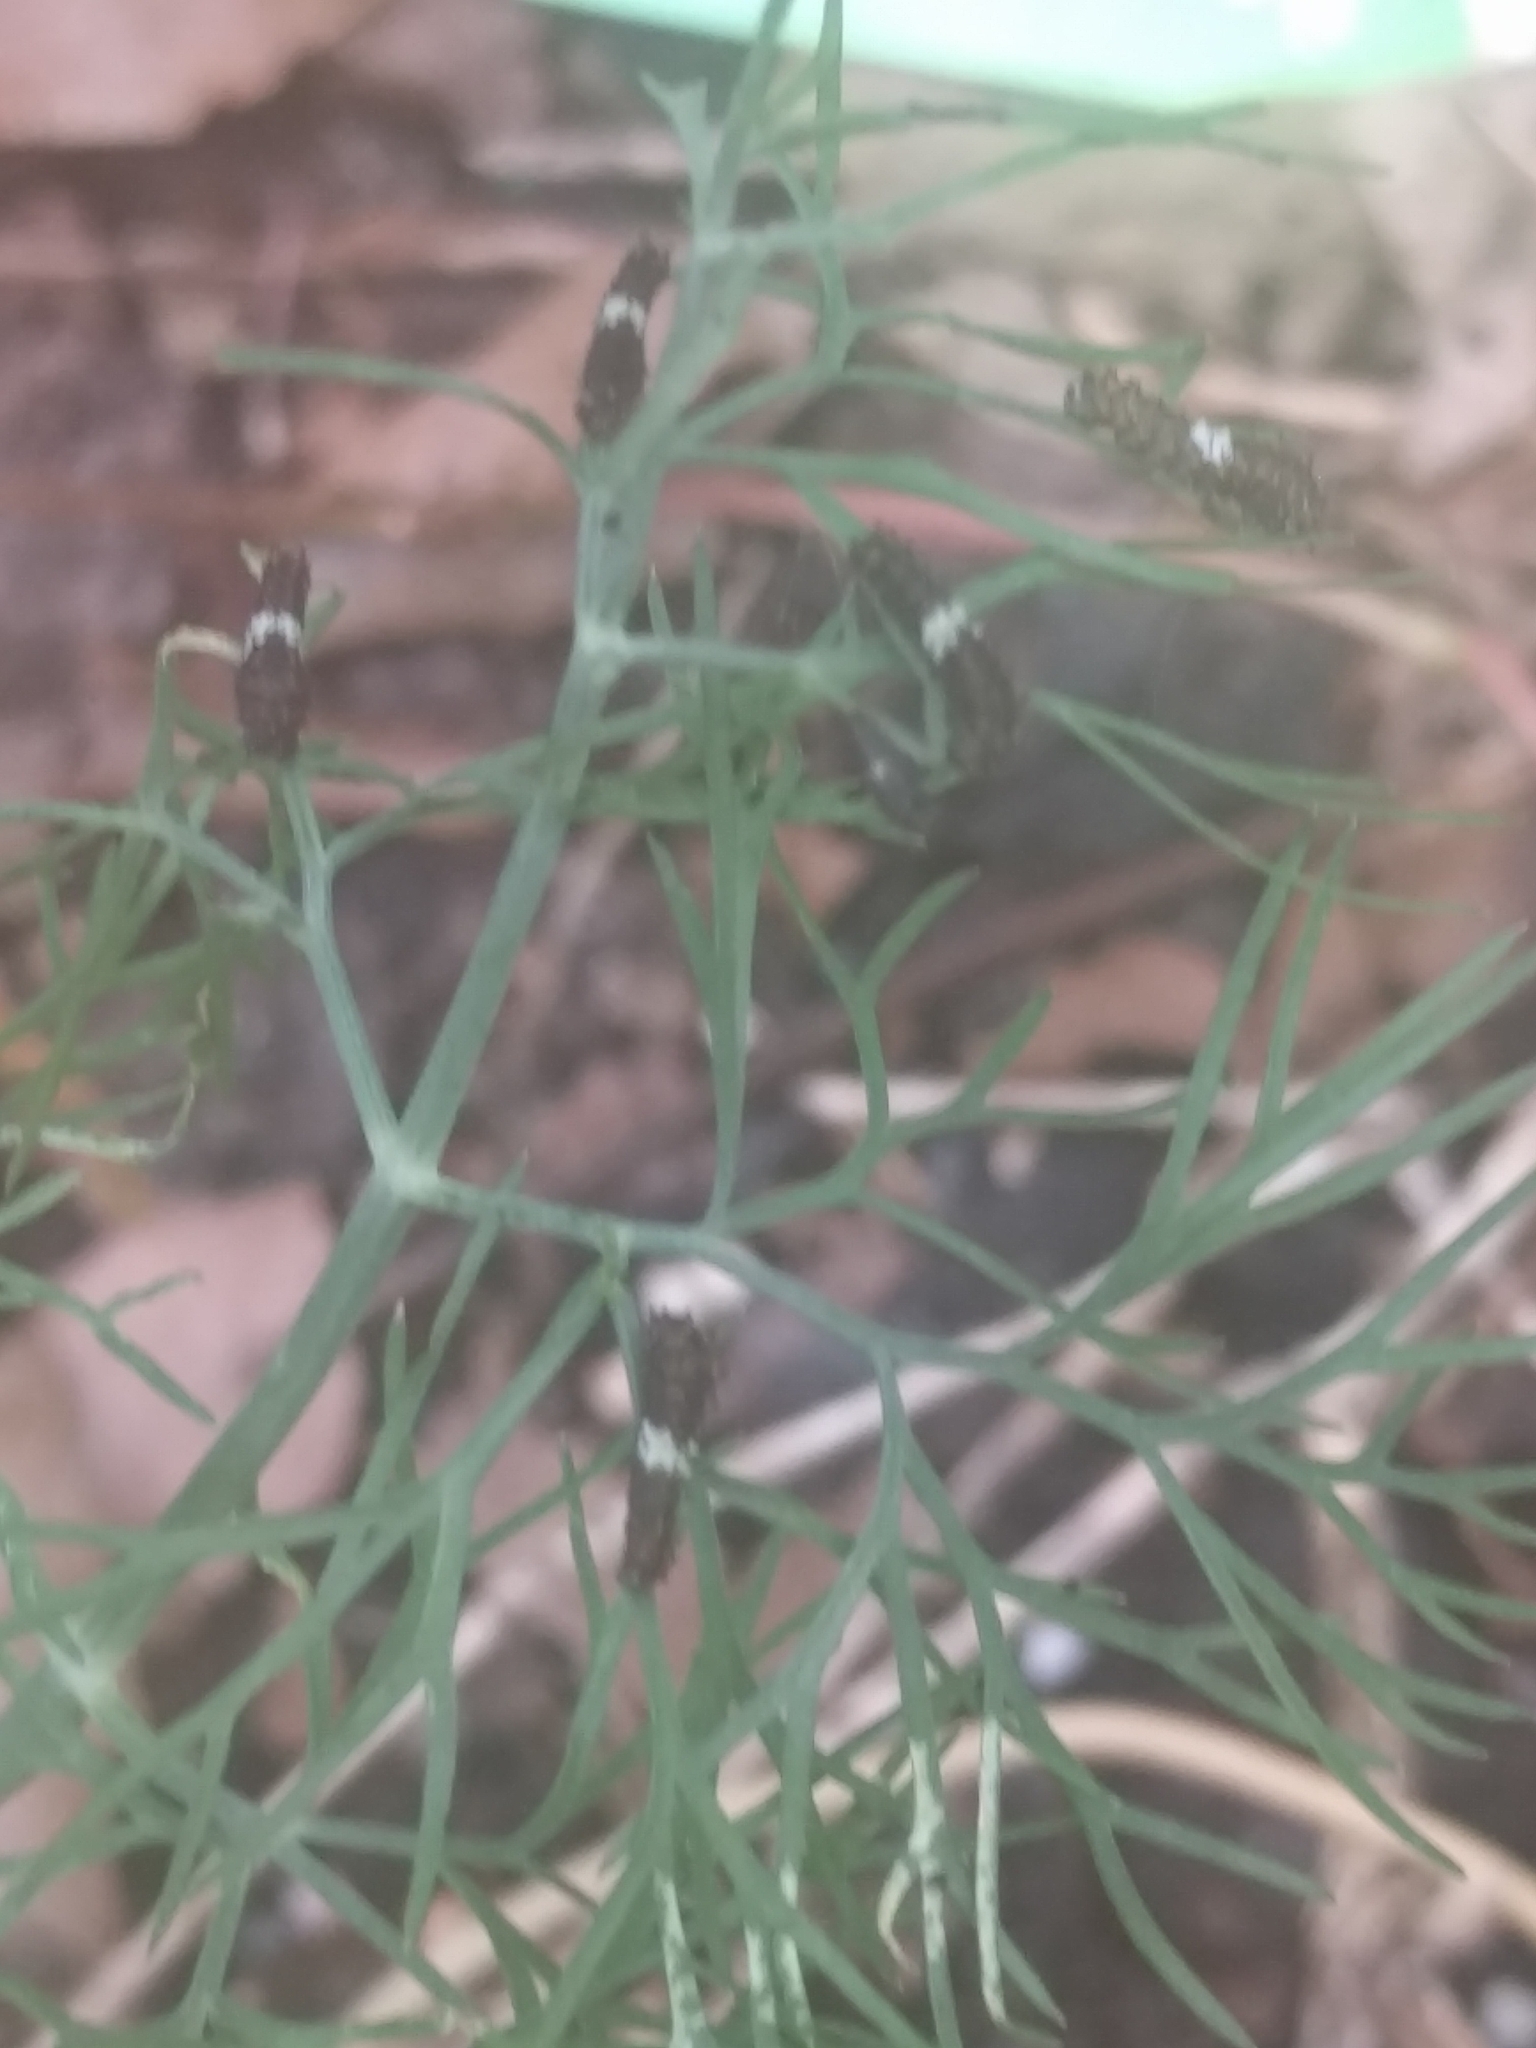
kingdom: Animalia
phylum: Arthropoda
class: Insecta
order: Lepidoptera
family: Papilionidae
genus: Papilio
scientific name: Papilio polyxenes
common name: Black swallowtail
